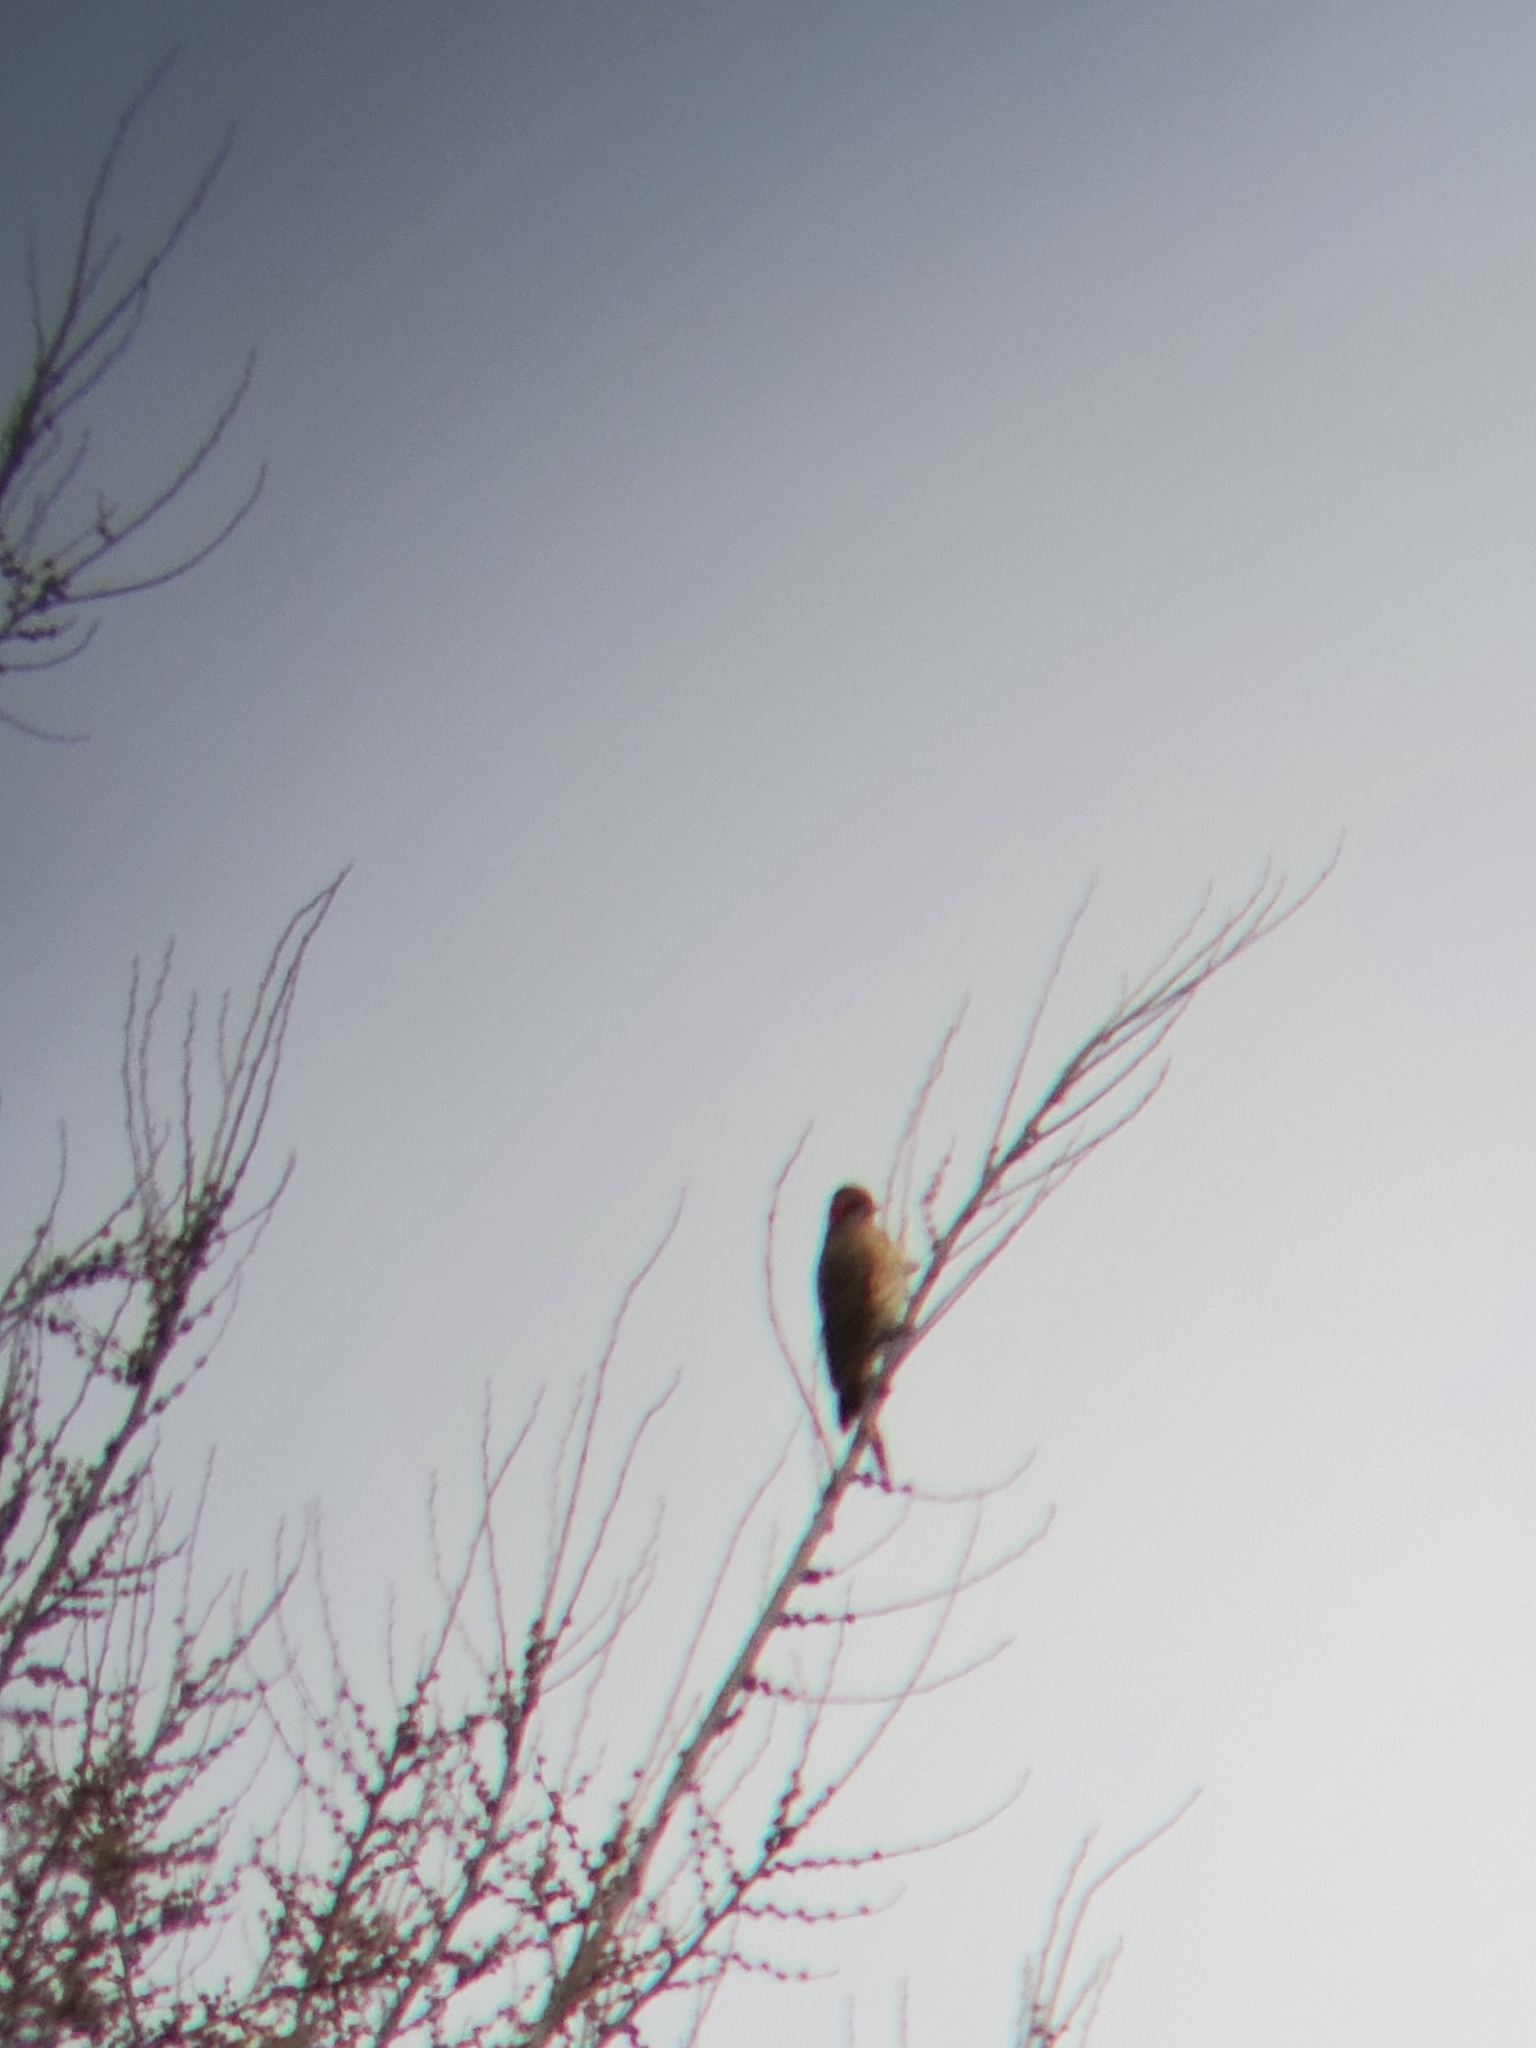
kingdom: Animalia
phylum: Chordata
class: Aves
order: Piciformes
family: Picidae
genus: Colaptes
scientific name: Colaptes auratus
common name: Northern flicker
